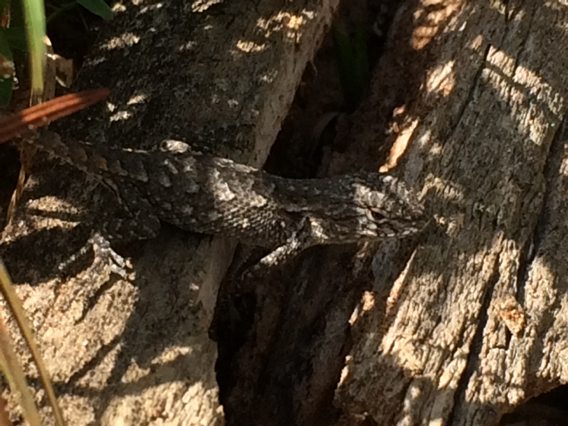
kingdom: Animalia
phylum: Chordata
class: Squamata
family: Phrynosomatidae
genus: Sceloporus
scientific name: Sceloporus consobrinus
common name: Southern prairie lizard
